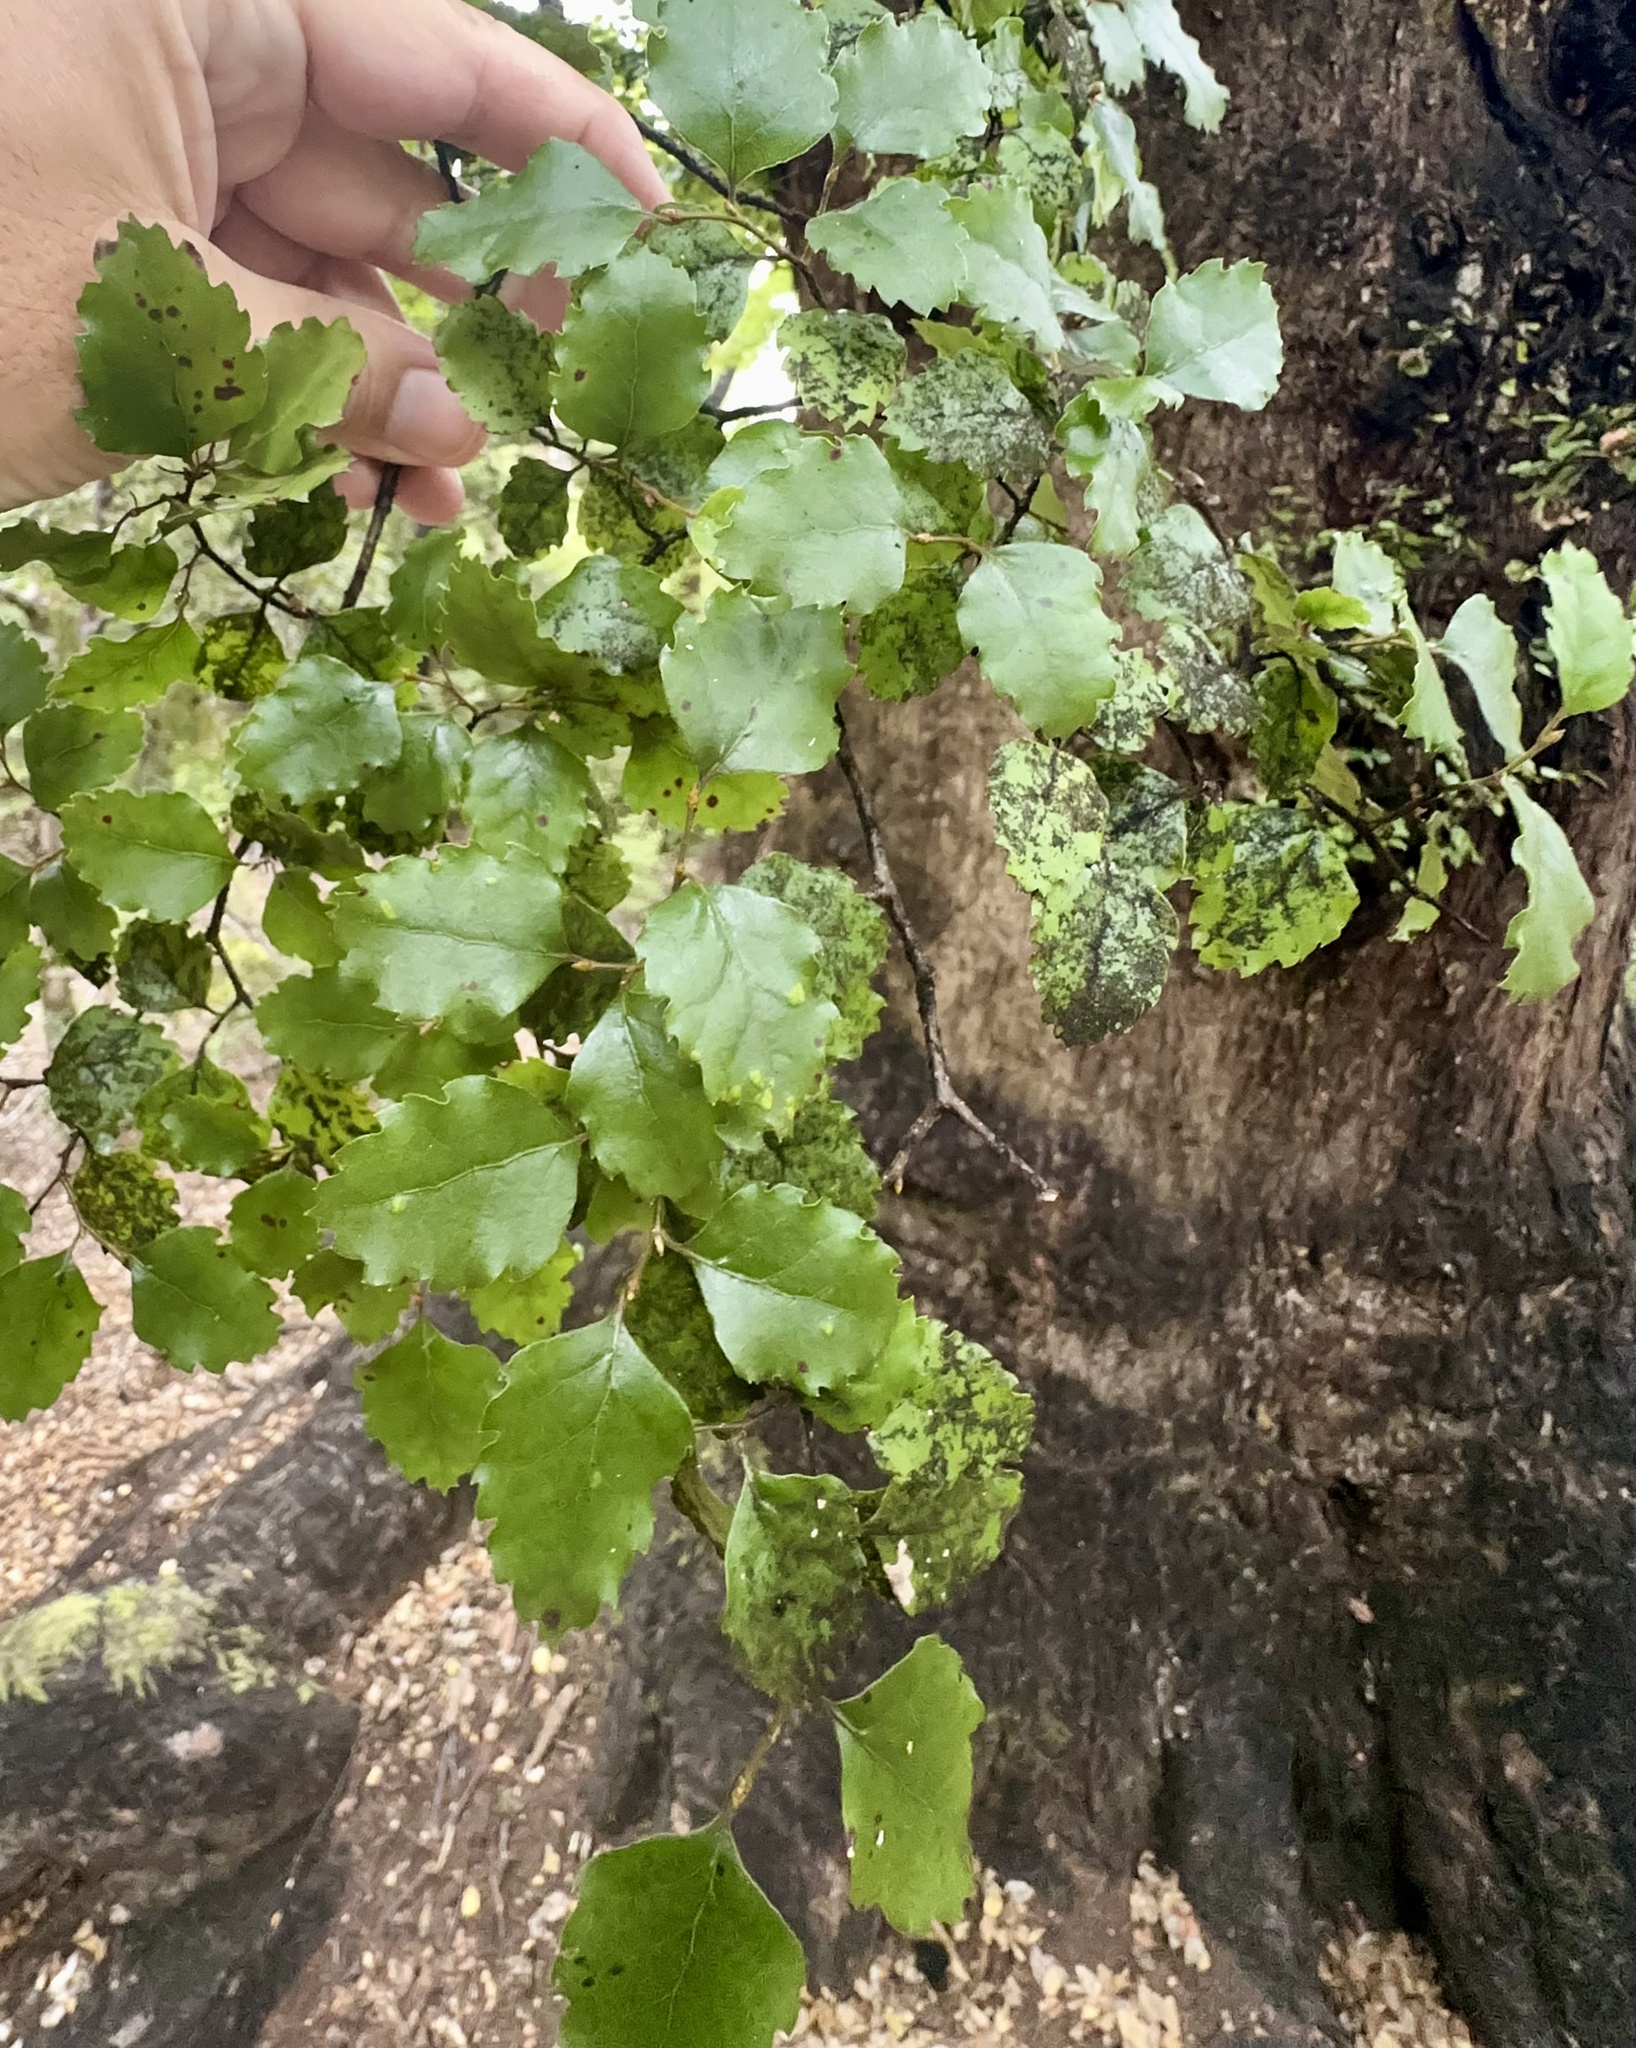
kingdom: Plantae
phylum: Tracheophyta
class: Magnoliopsida
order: Fagales
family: Nothofagaceae
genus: Nothofagus
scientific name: Nothofagus fusca
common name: Red beech
